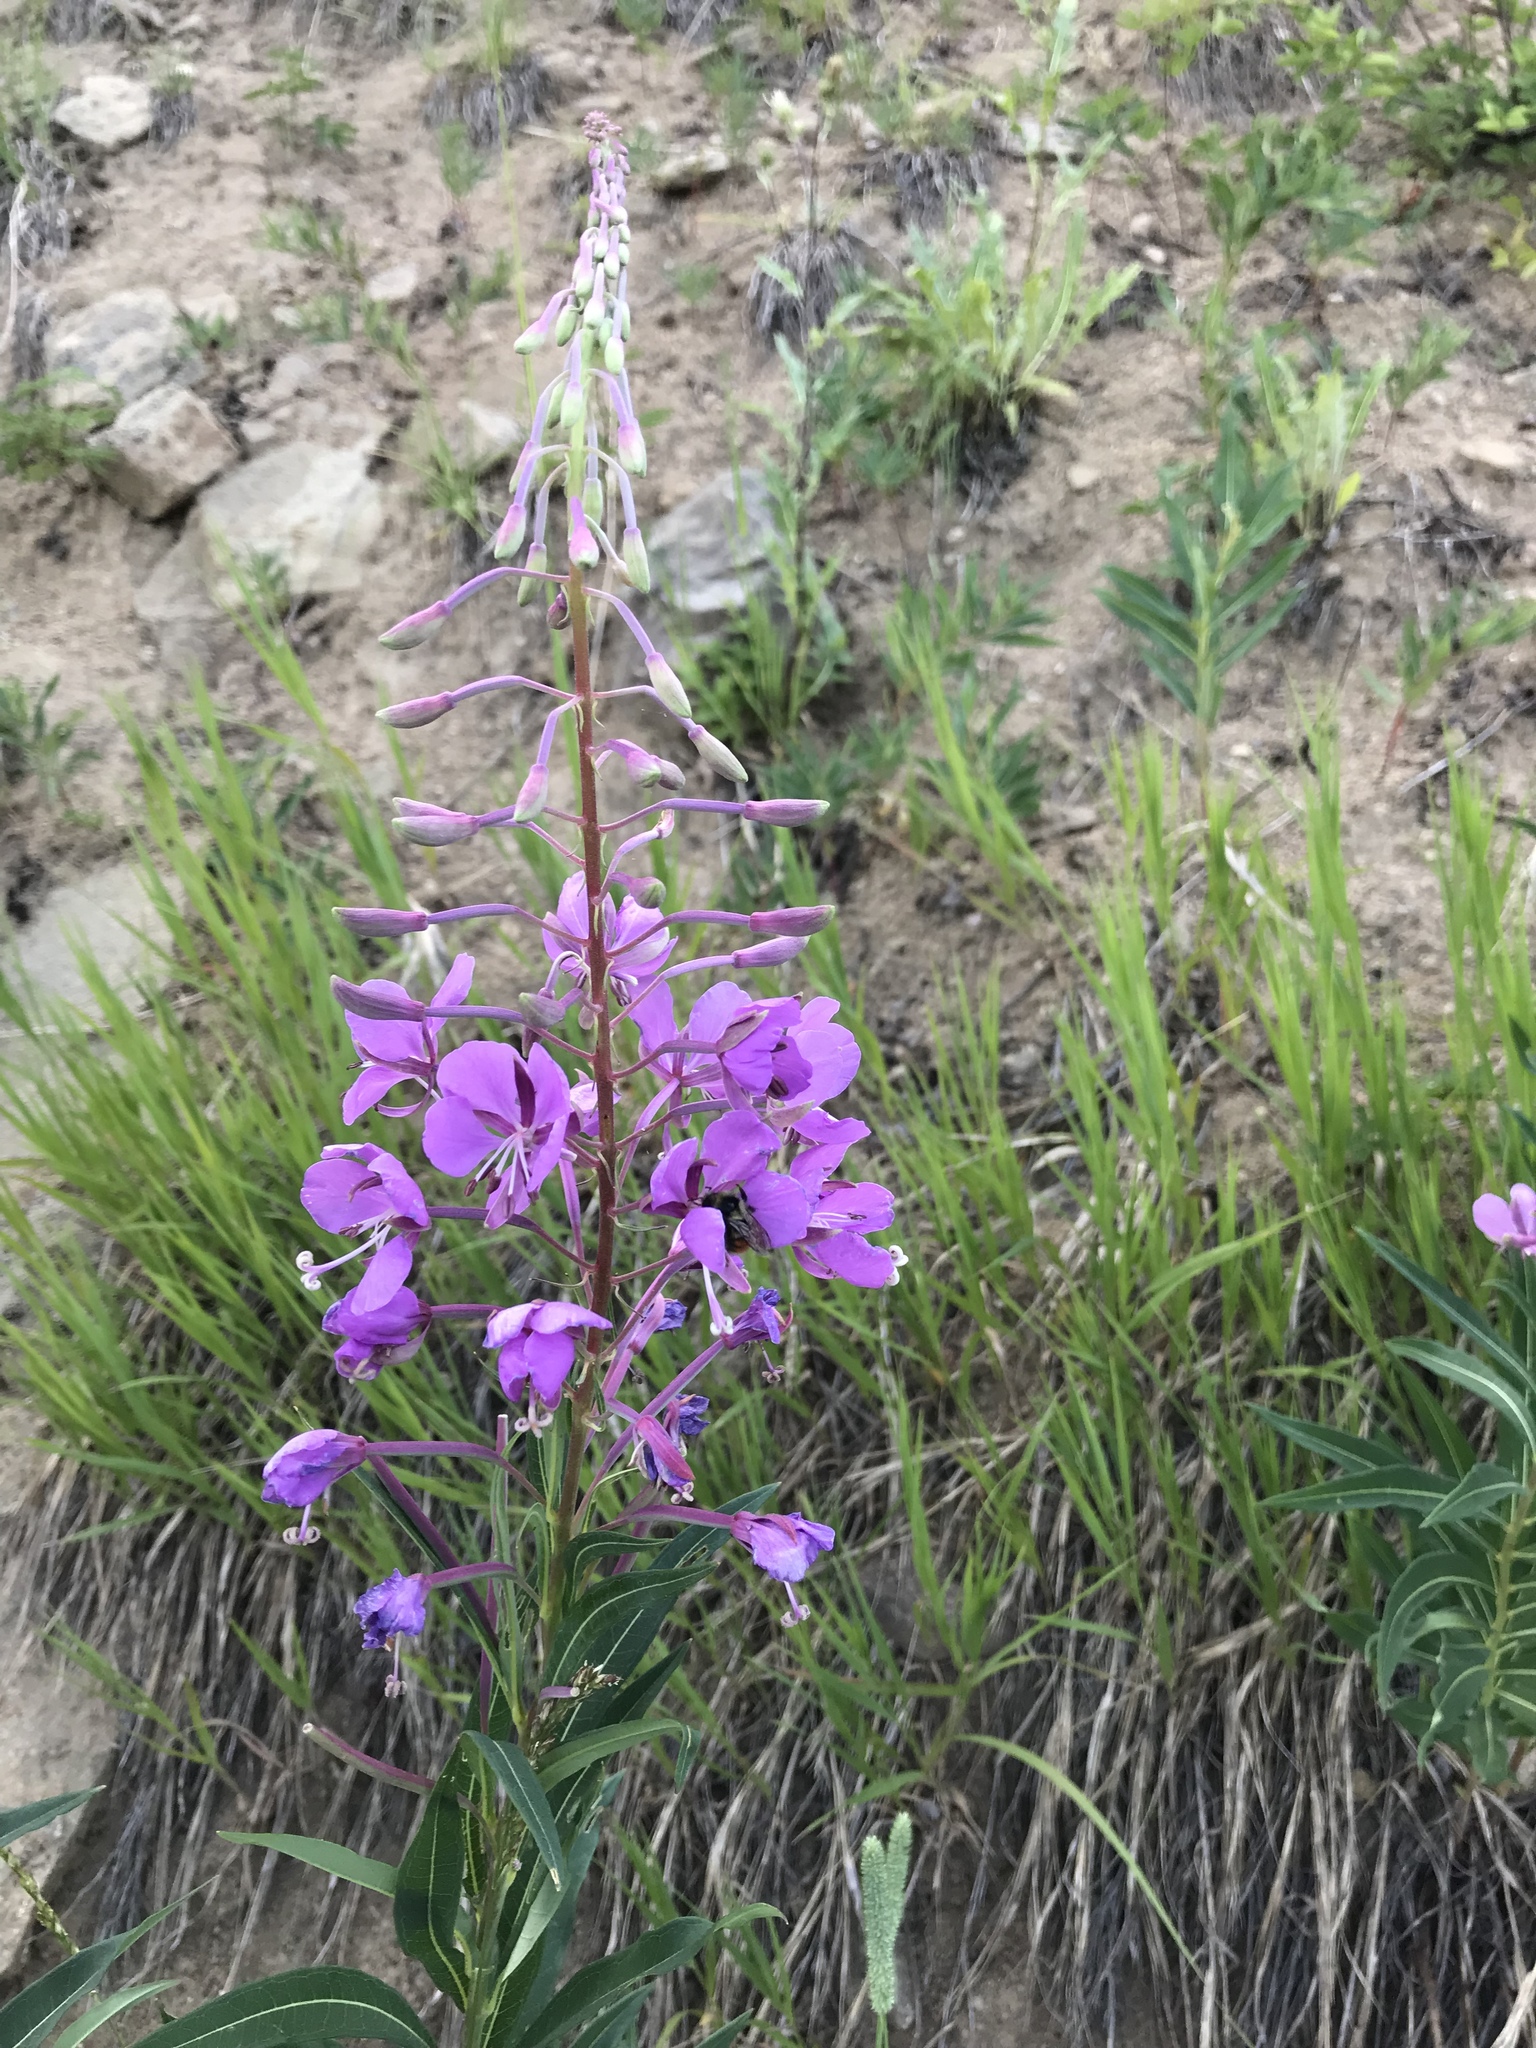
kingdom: Plantae
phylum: Tracheophyta
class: Magnoliopsida
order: Myrtales
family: Onagraceae
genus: Chamaenerion
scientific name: Chamaenerion angustifolium
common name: Fireweed
